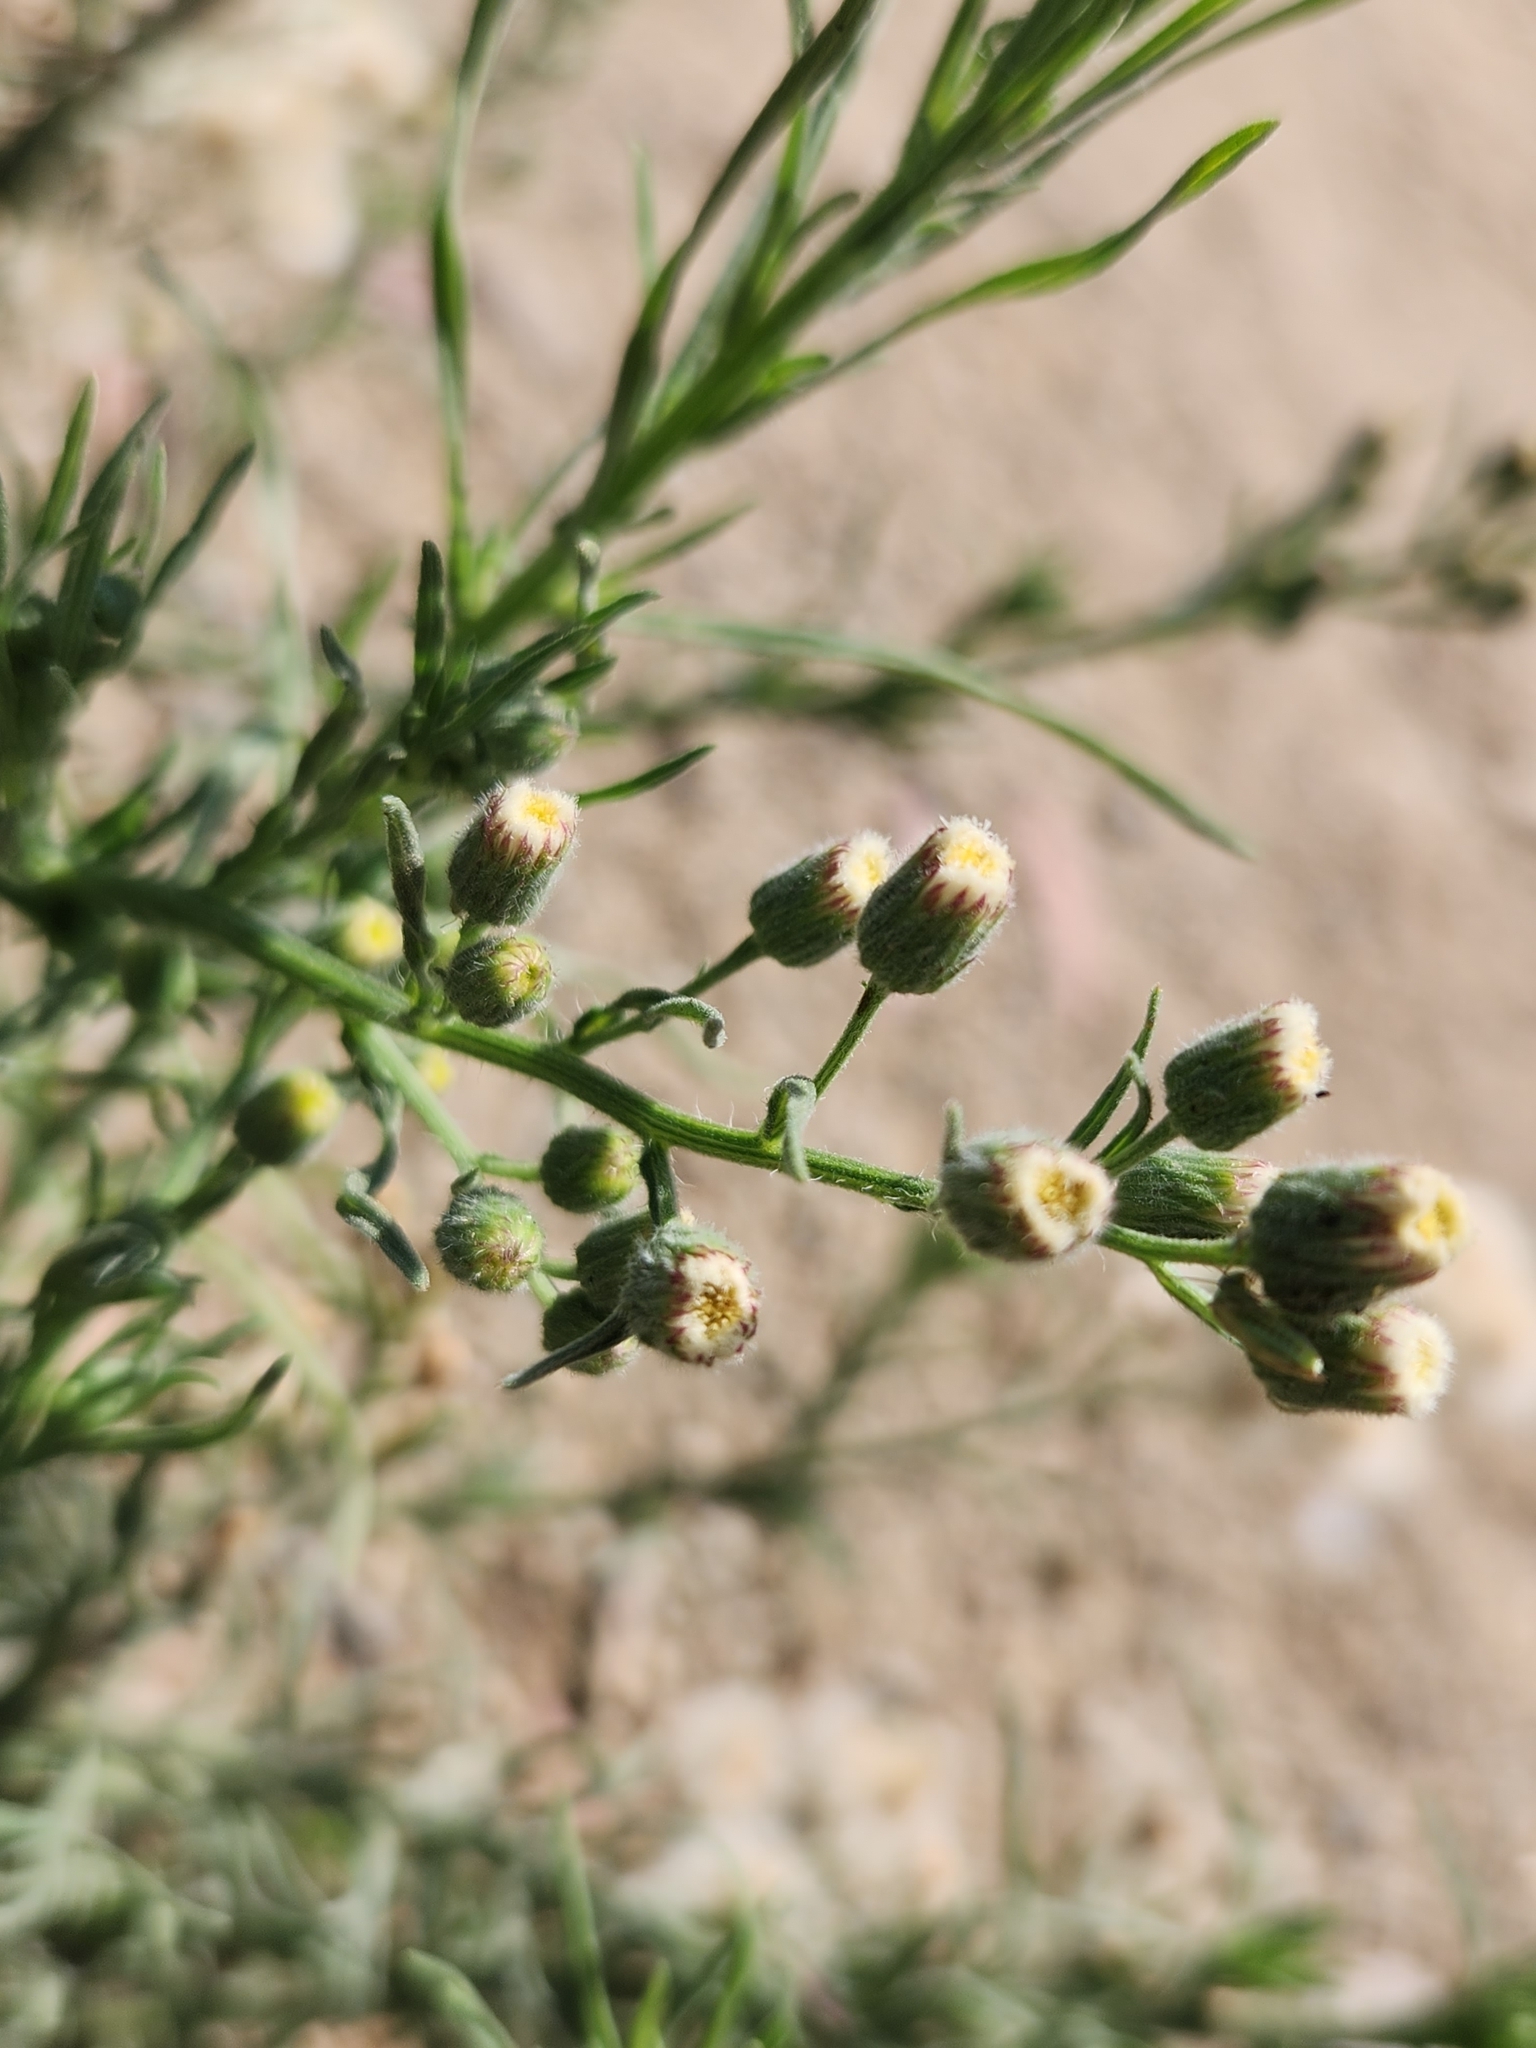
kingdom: Plantae
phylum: Tracheophyta
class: Magnoliopsida
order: Asterales
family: Asteraceae
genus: Erigeron
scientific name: Erigeron bonariensis
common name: Argentine fleabane
